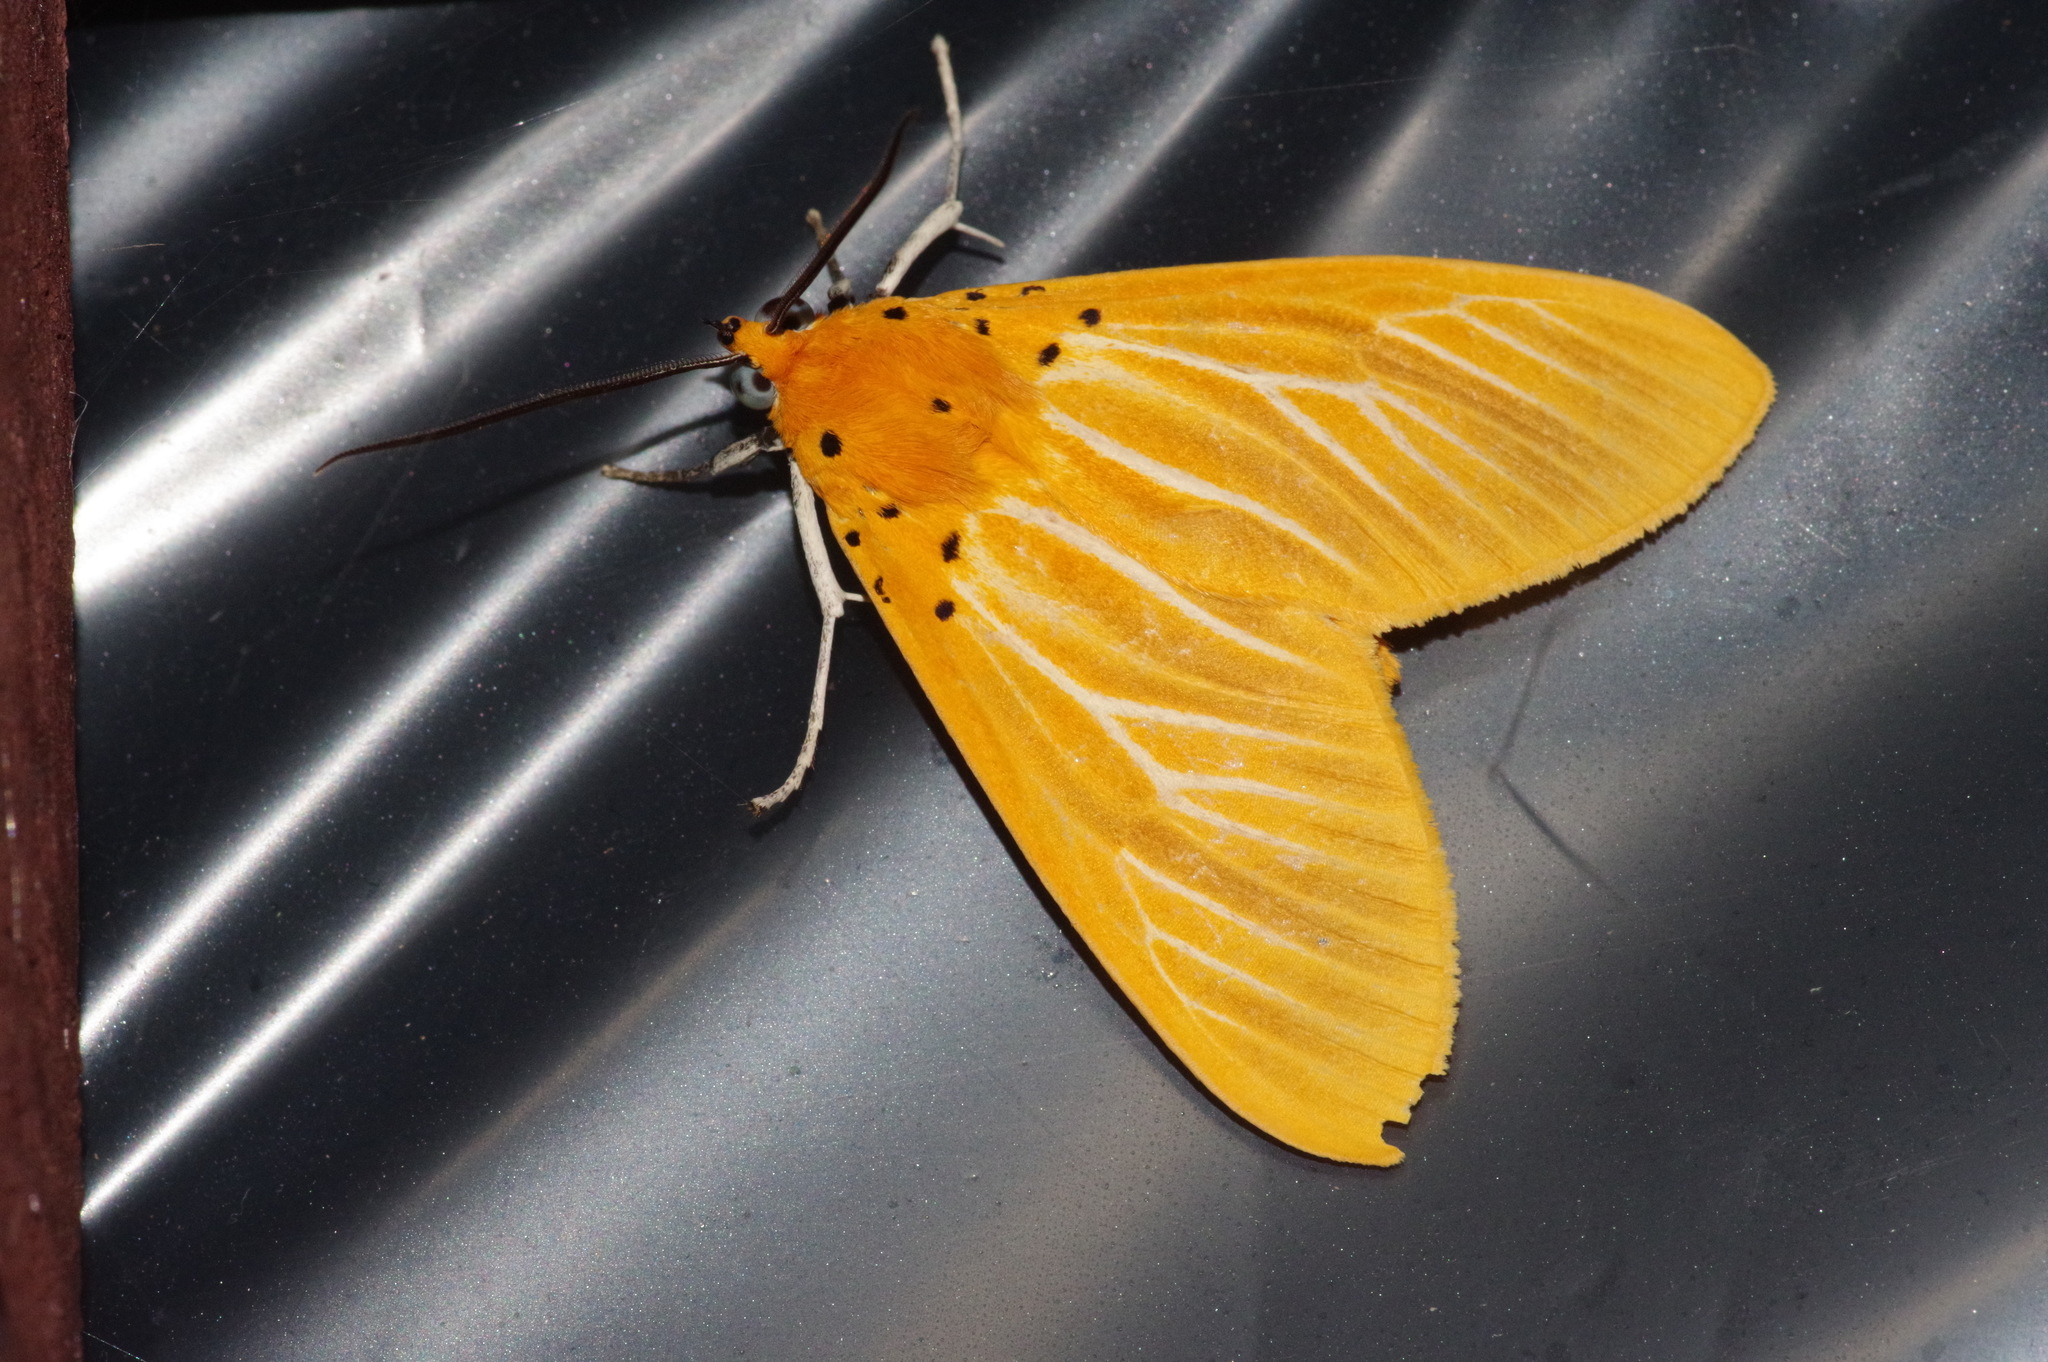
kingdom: Animalia
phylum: Arthropoda
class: Insecta
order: Lepidoptera
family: Erebidae
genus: Asota
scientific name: Asota egens
